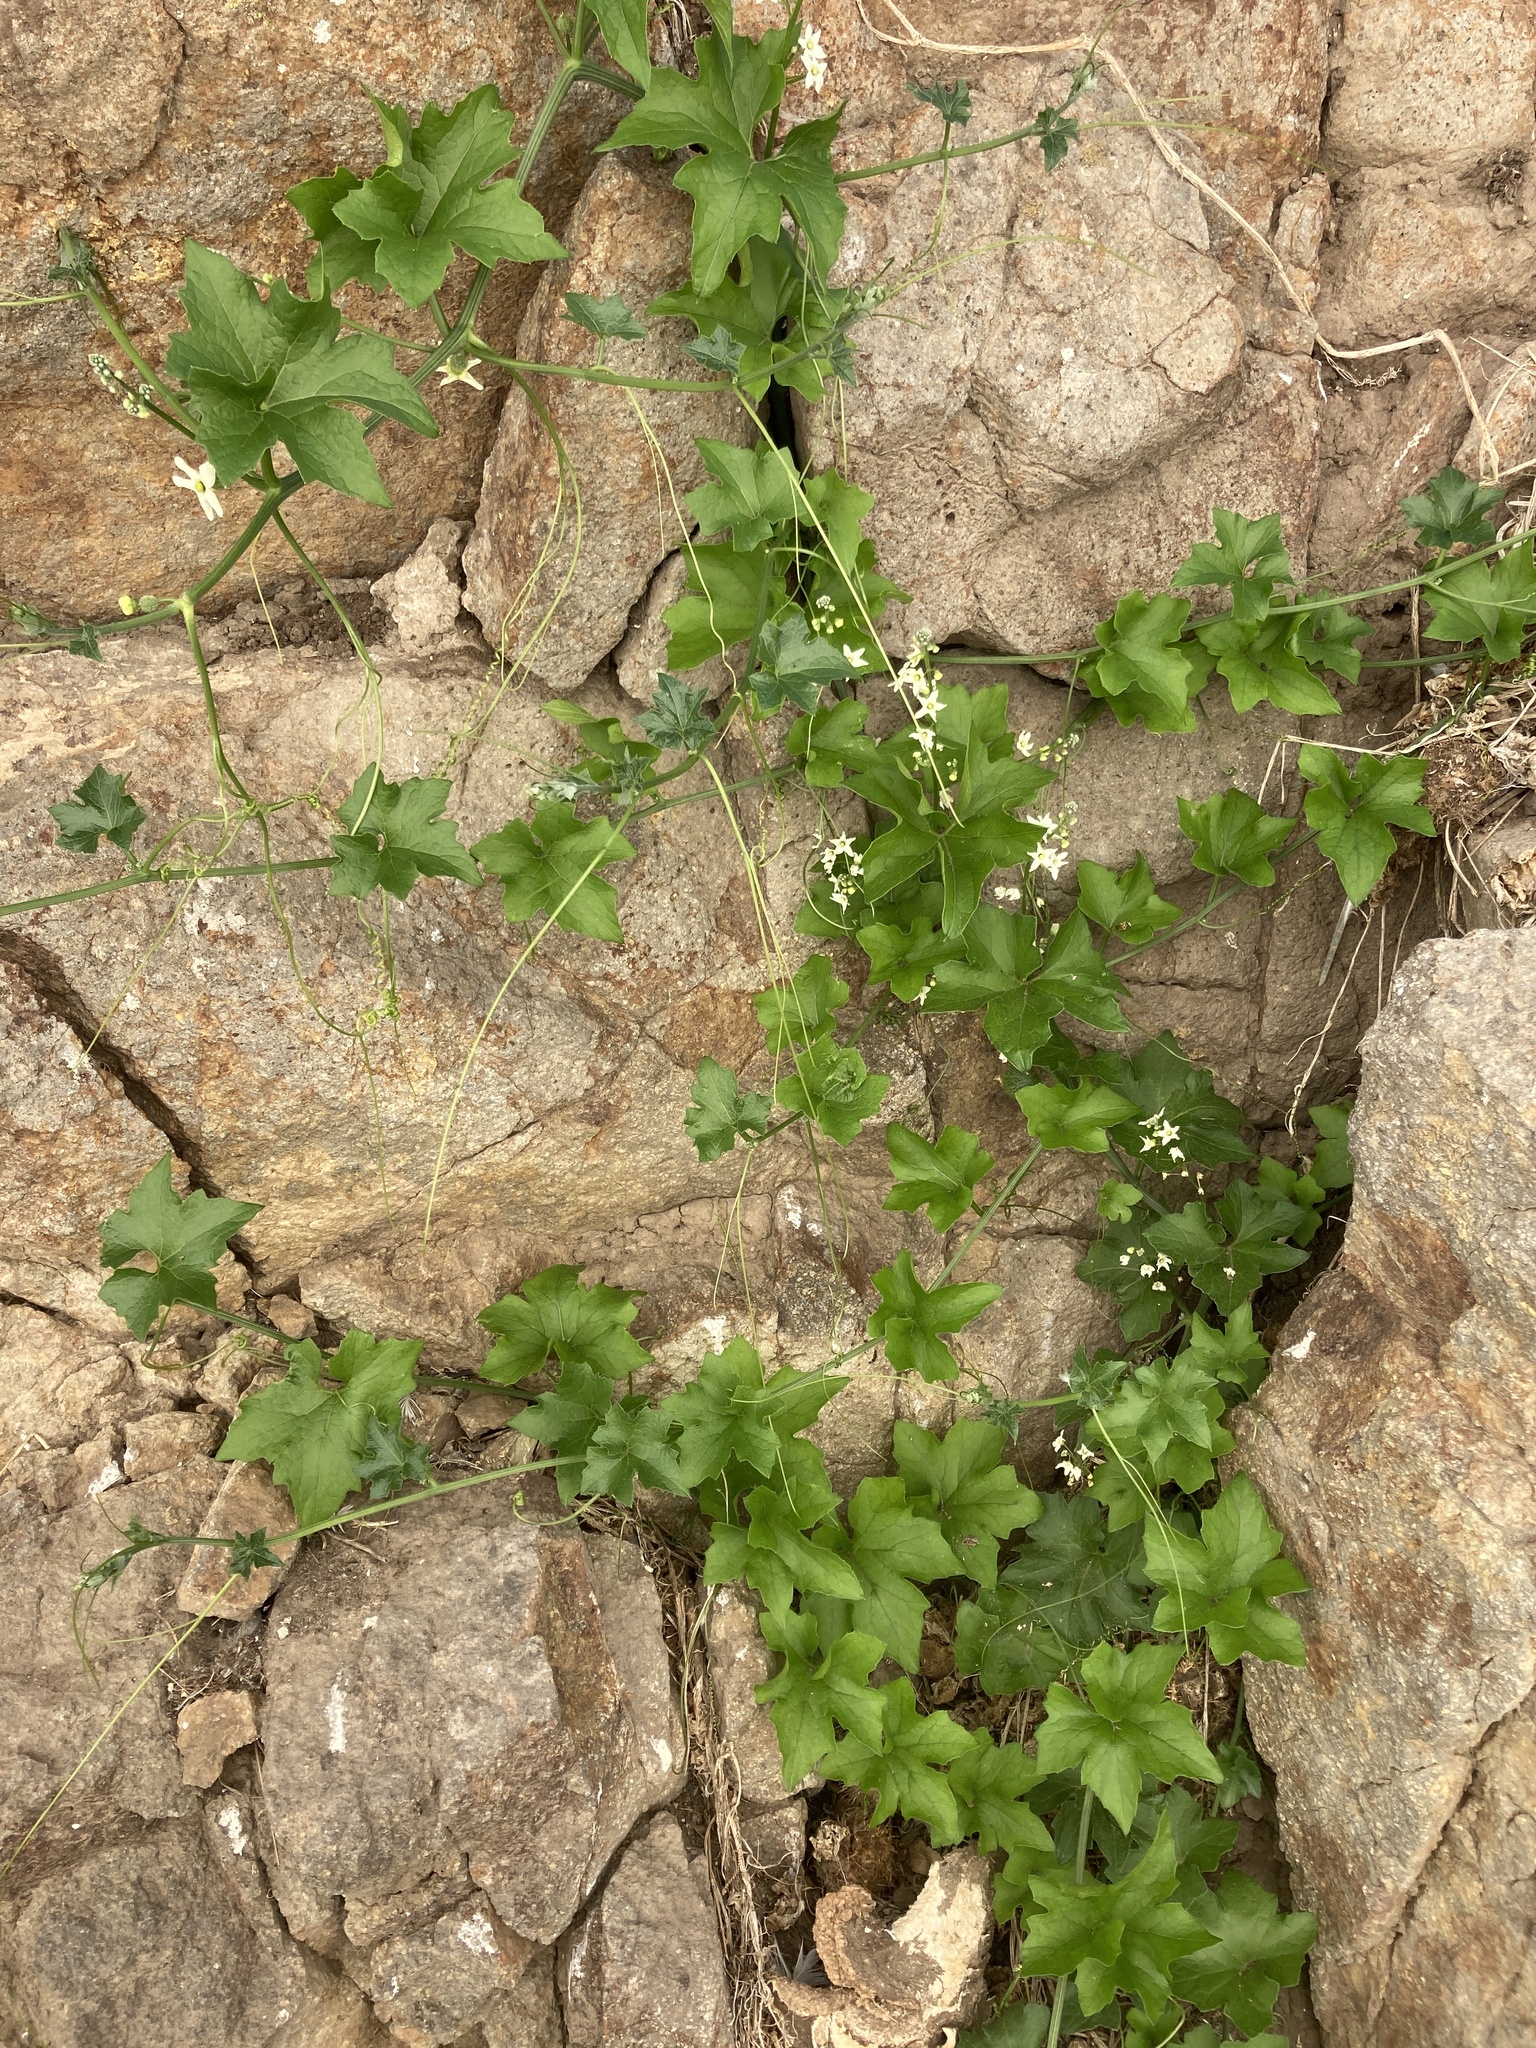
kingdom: Plantae
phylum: Tracheophyta
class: Magnoliopsida
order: Cucurbitales
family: Cucurbitaceae
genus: Marah
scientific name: Marah macrocarpa
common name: Cucamonga manroot
